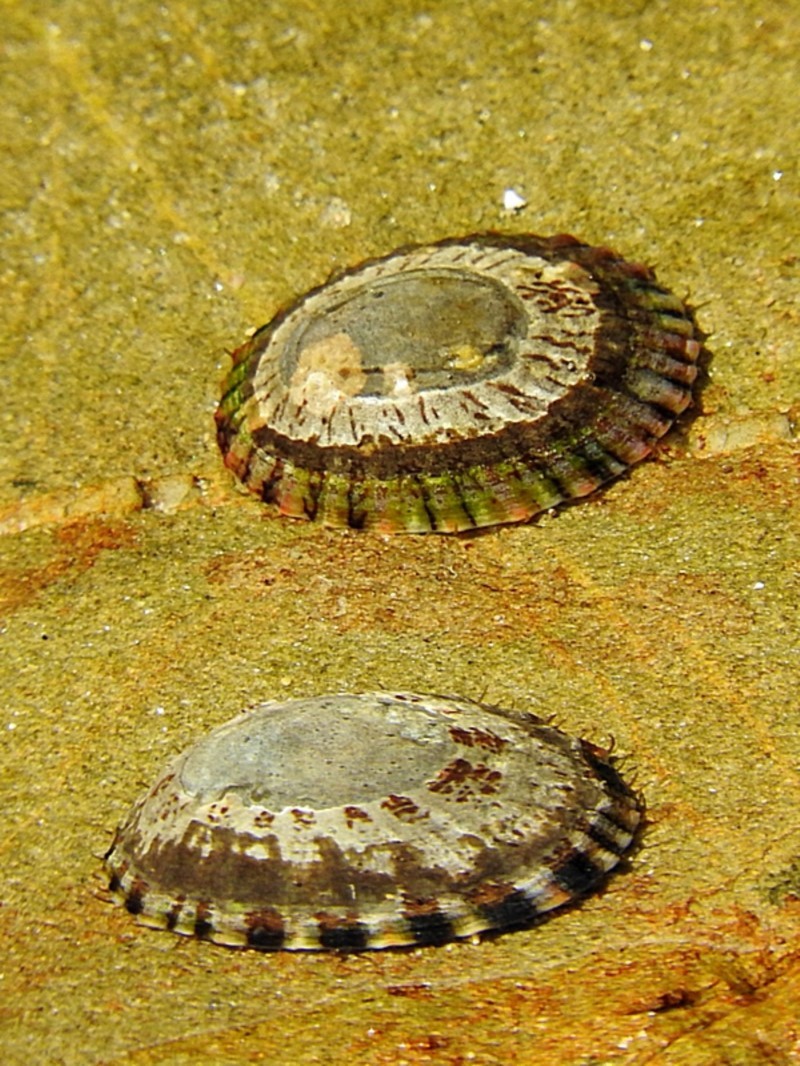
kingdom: Animalia
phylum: Mollusca
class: Gastropoda
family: Nacellidae
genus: Cellana
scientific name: Cellana tramoserica
